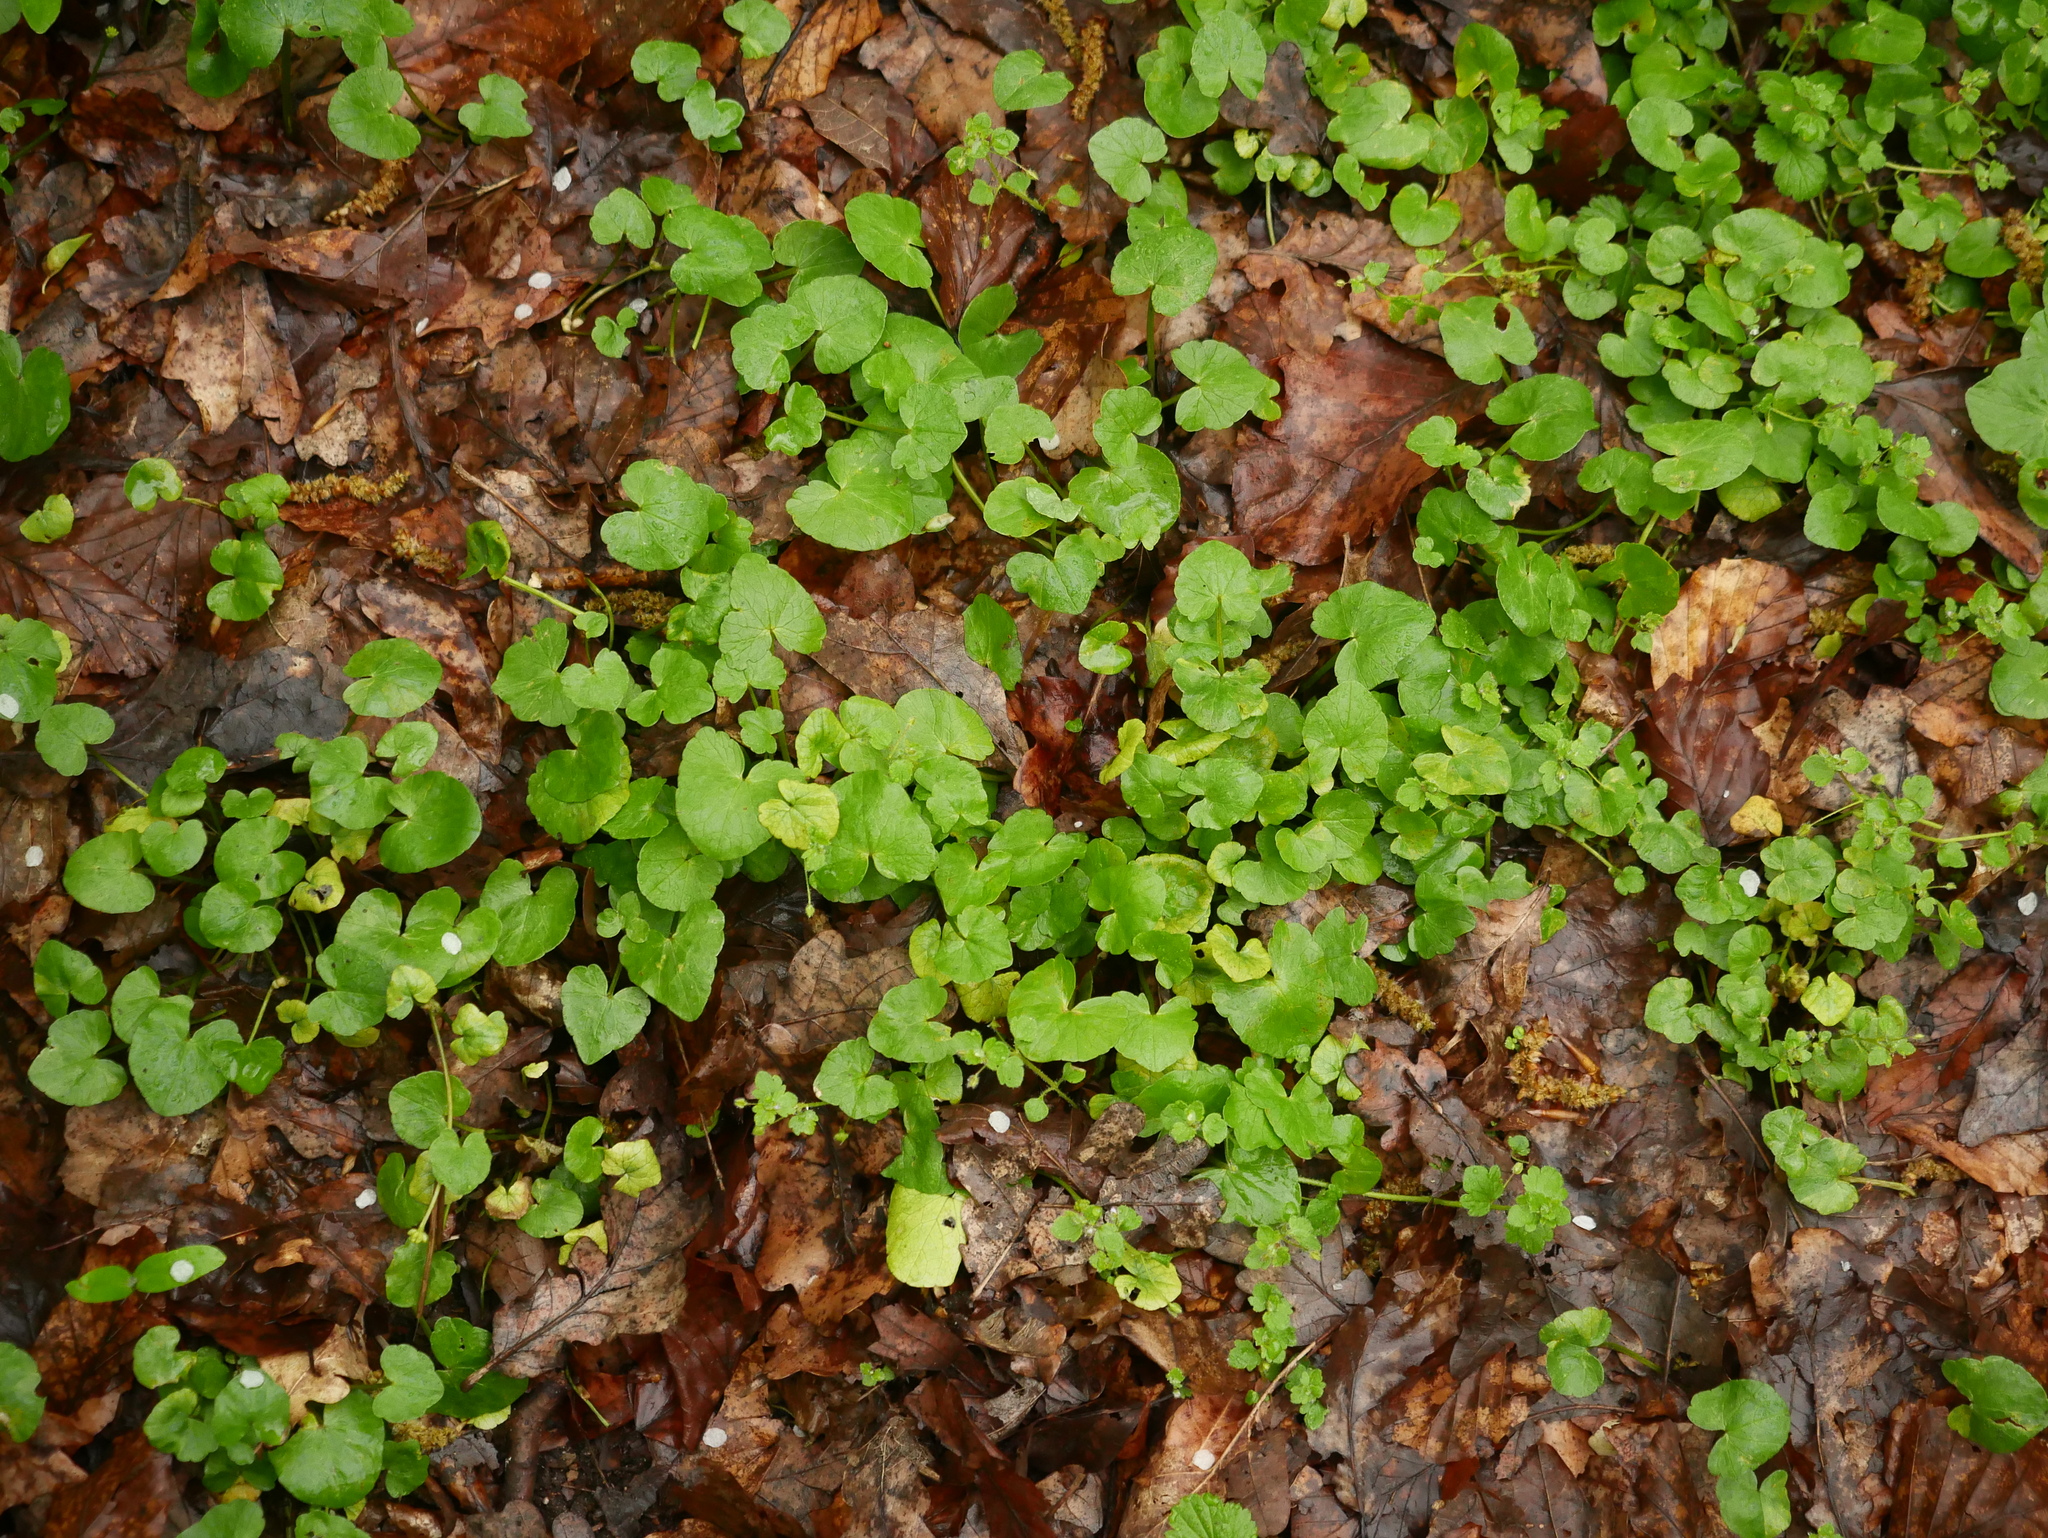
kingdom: Plantae
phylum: Tracheophyta
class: Magnoliopsida
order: Ranunculales
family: Ranunculaceae
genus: Ficaria
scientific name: Ficaria verna
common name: Lesser celandine
